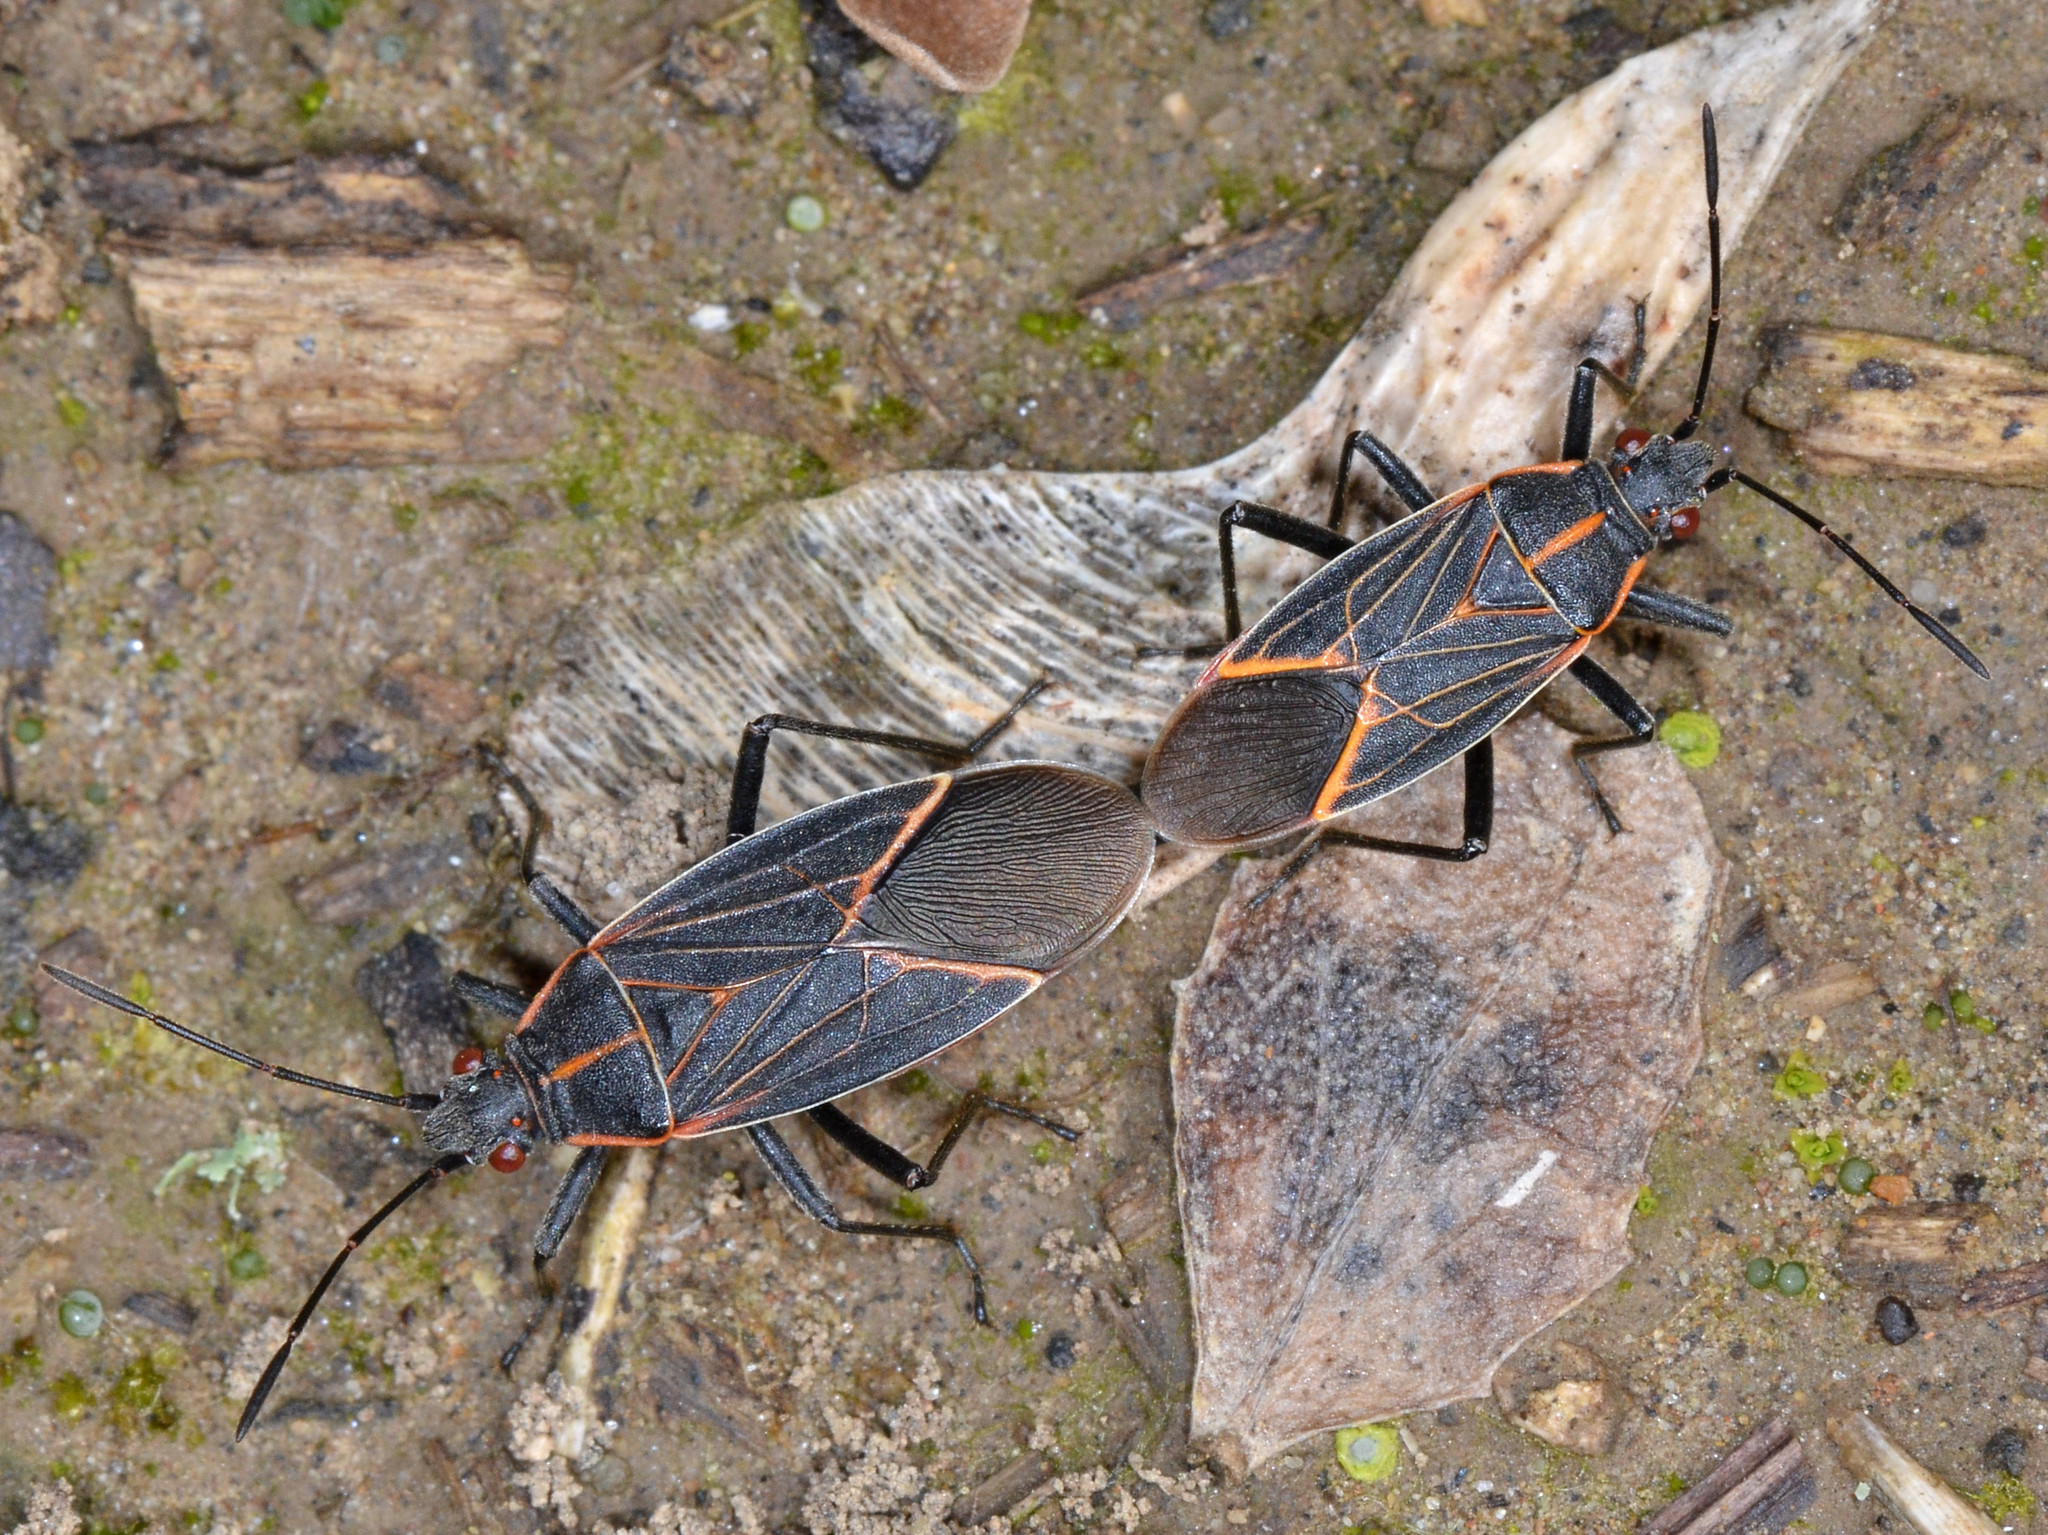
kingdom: Animalia
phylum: Arthropoda
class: Insecta
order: Hemiptera
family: Rhopalidae
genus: Boisea
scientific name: Boisea rubrolineata
